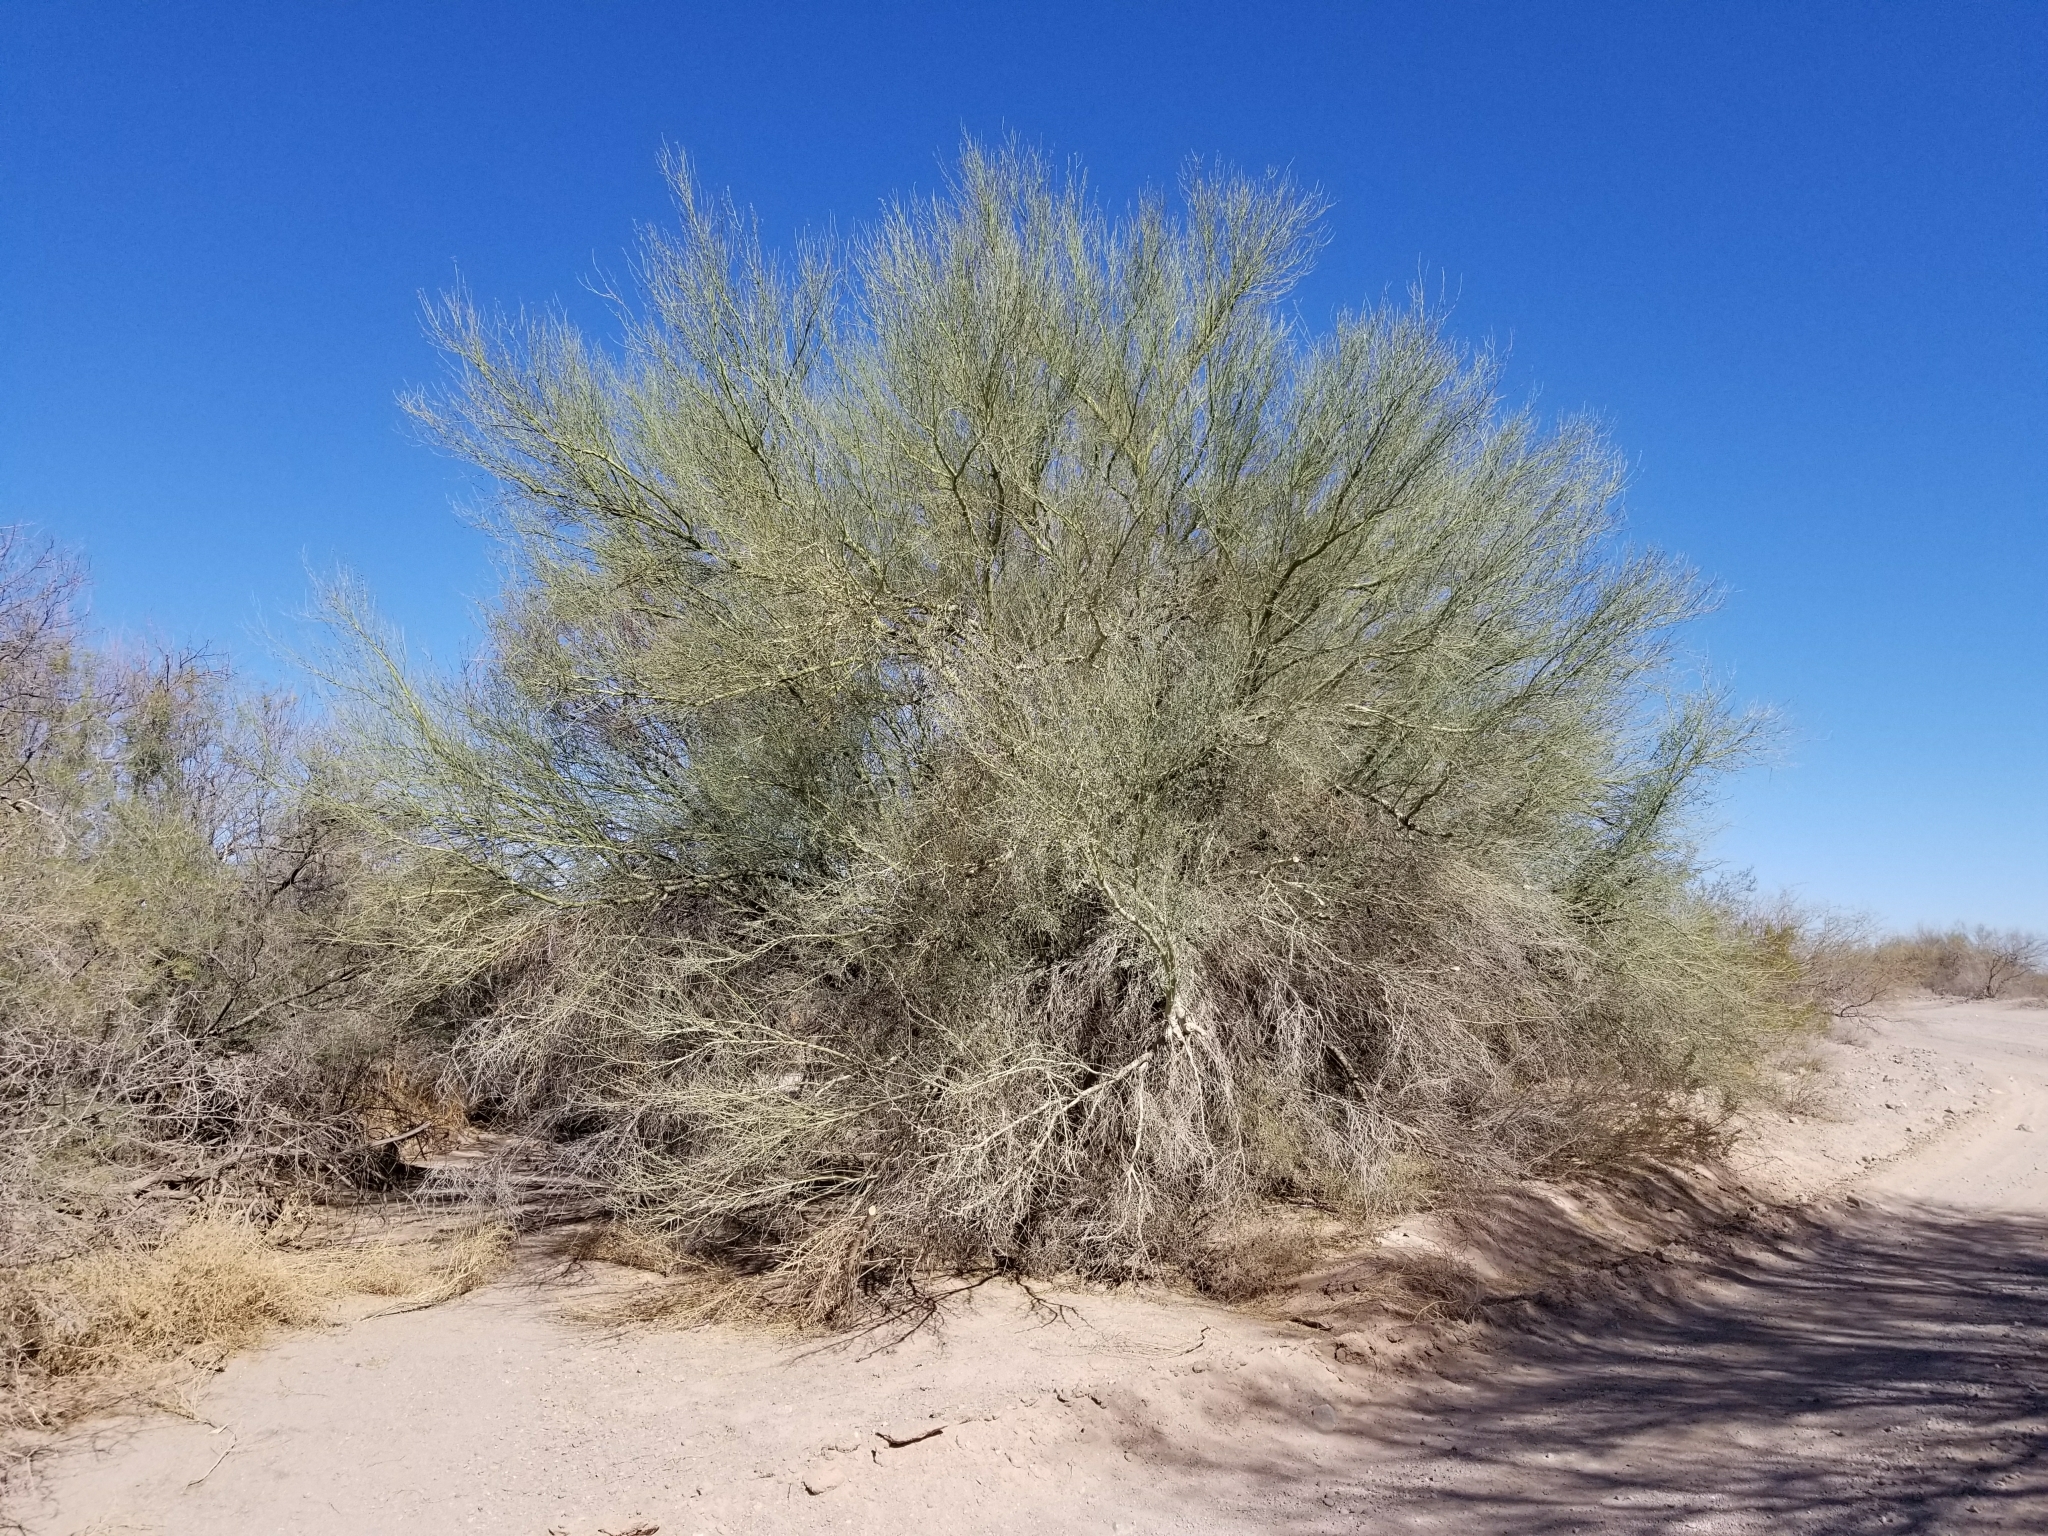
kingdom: Plantae
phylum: Tracheophyta
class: Magnoliopsida
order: Fabales
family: Fabaceae
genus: Parkinsonia
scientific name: Parkinsonia florida
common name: Blue paloverde
